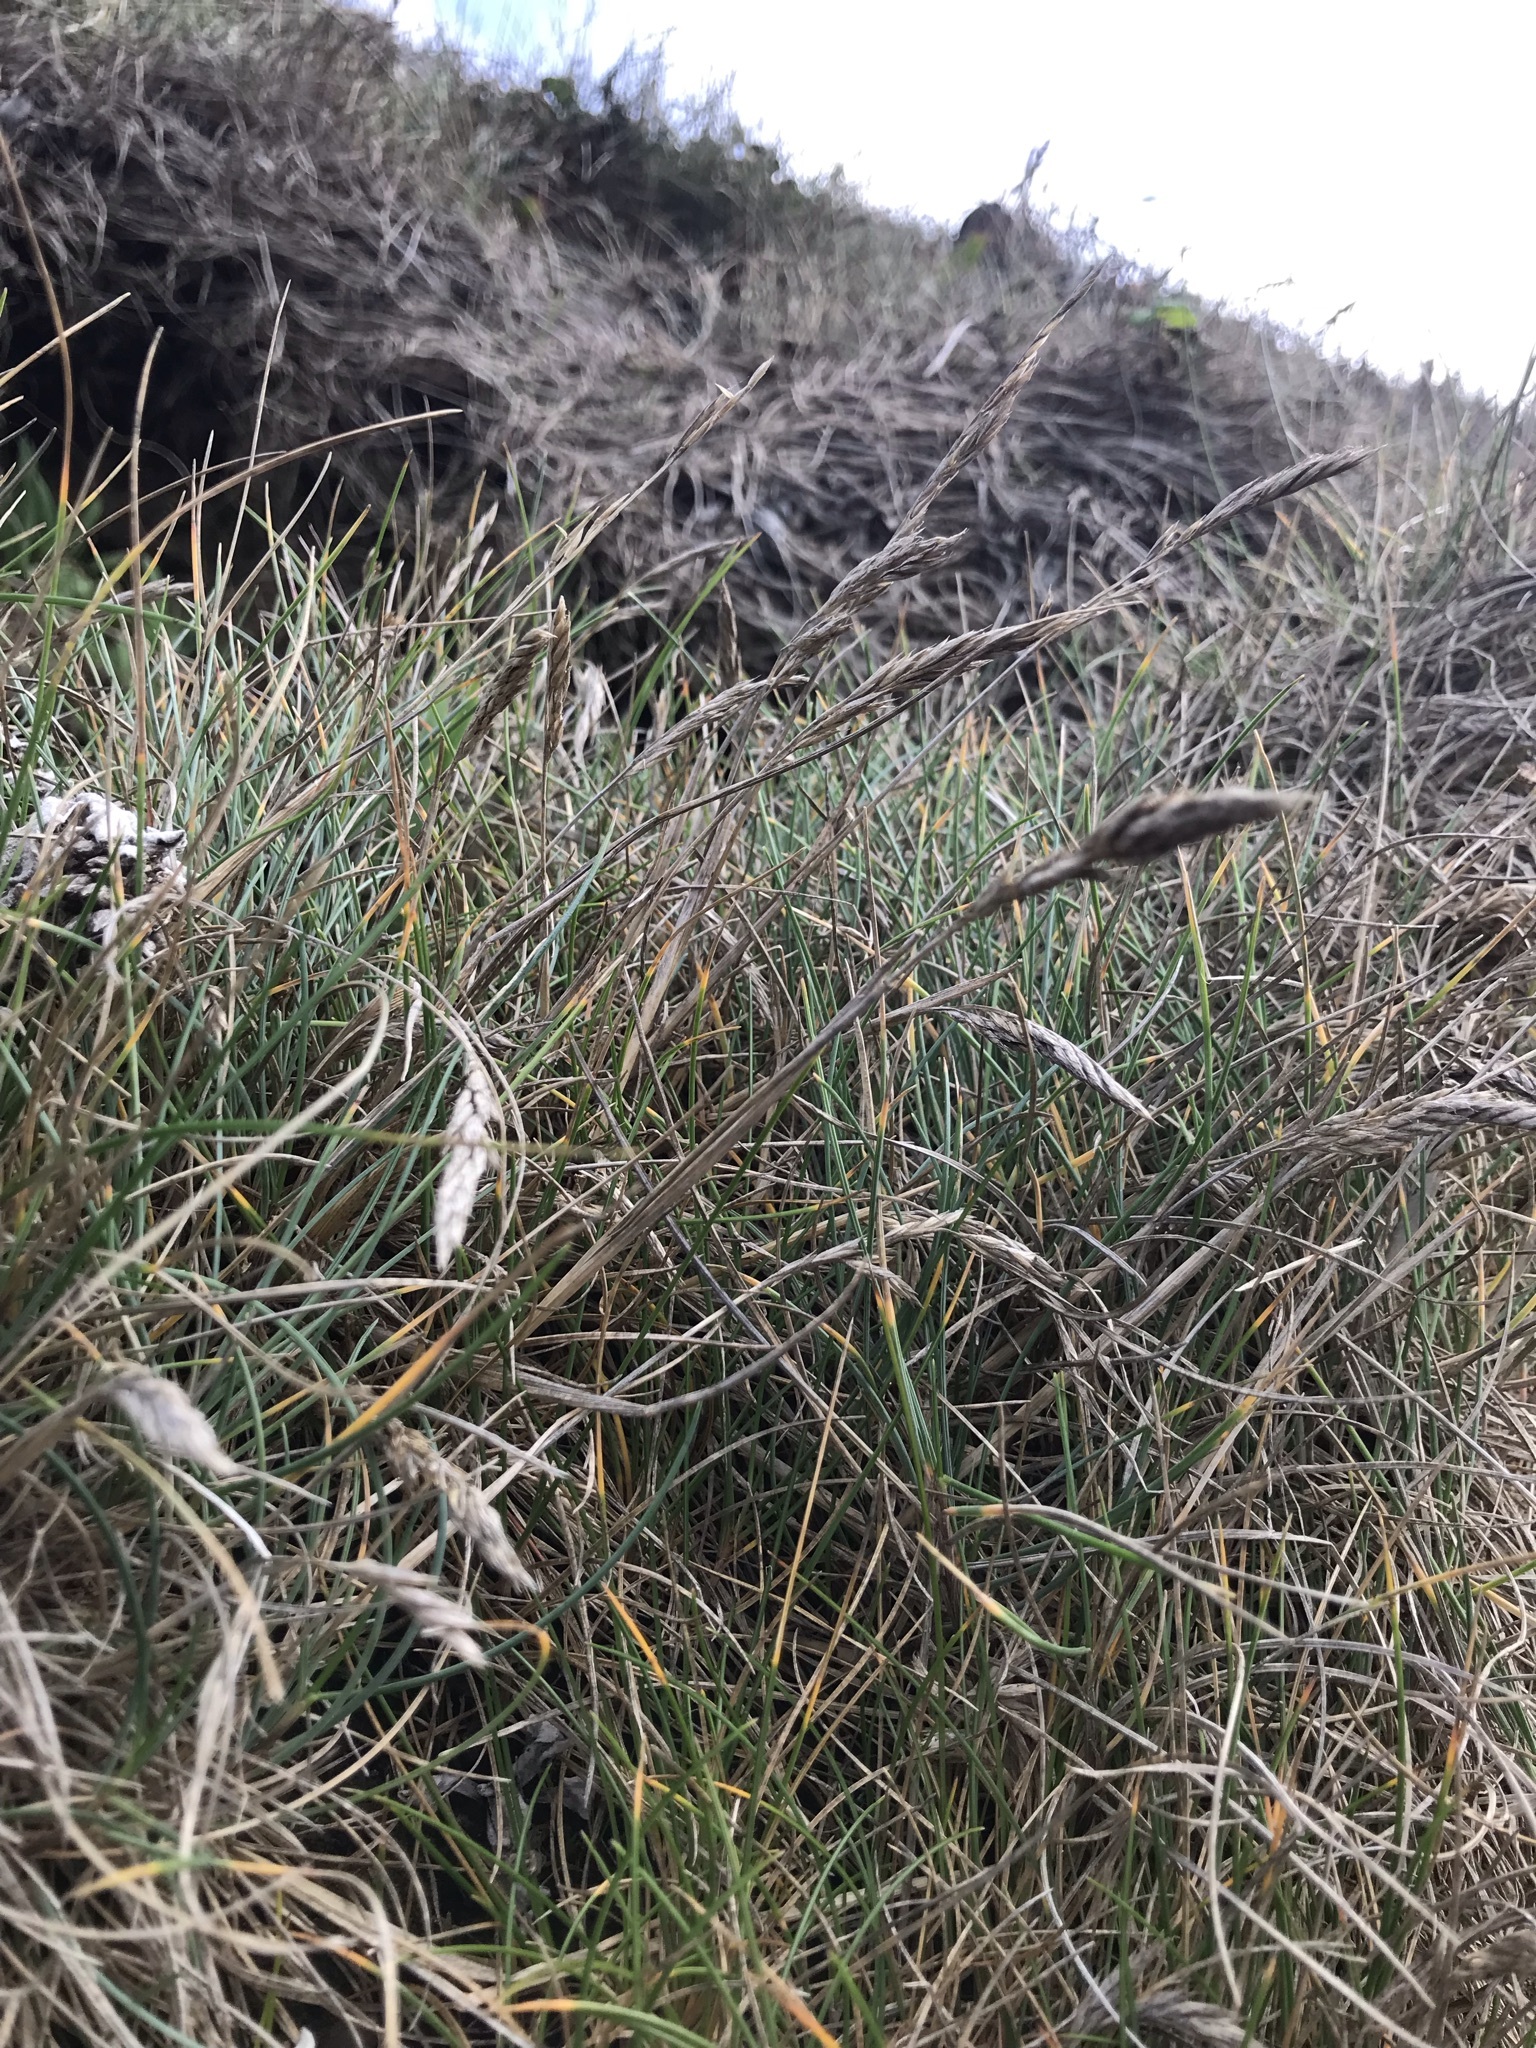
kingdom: Plantae
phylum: Tracheophyta
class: Liliopsida
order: Poales
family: Poaceae
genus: Festuca
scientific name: Festuca rubra
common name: Red fescue
